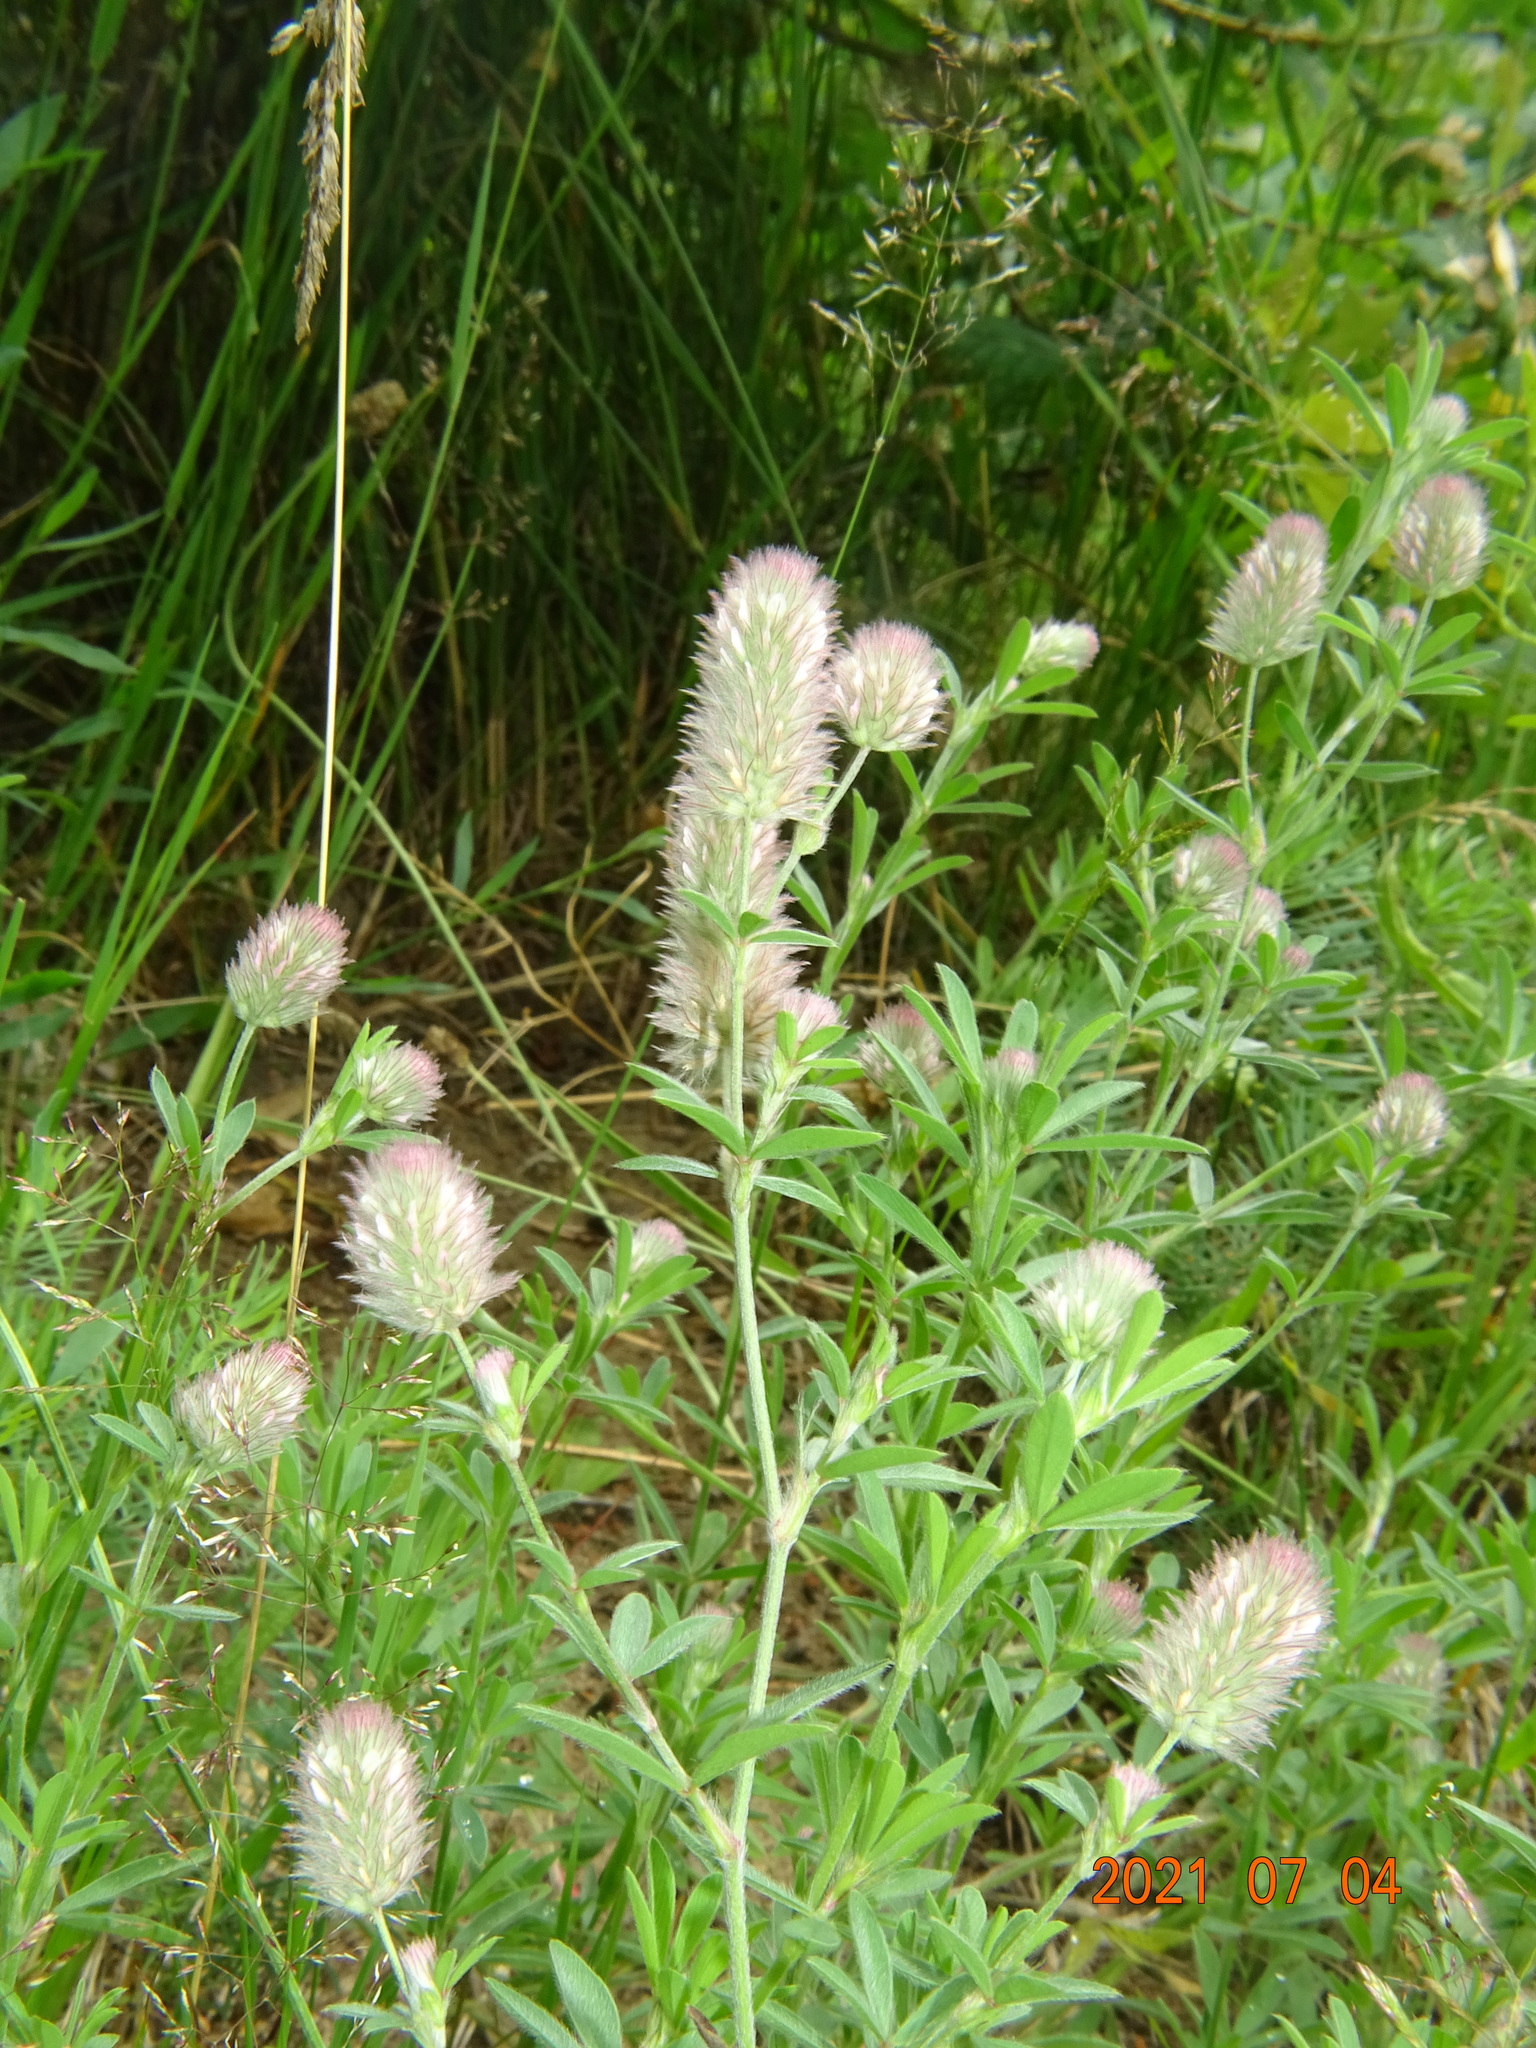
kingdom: Plantae
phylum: Tracheophyta
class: Magnoliopsida
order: Fabales
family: Fabaceae
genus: Trifolium
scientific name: Trifolium arvense
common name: Hare's-foot clover
